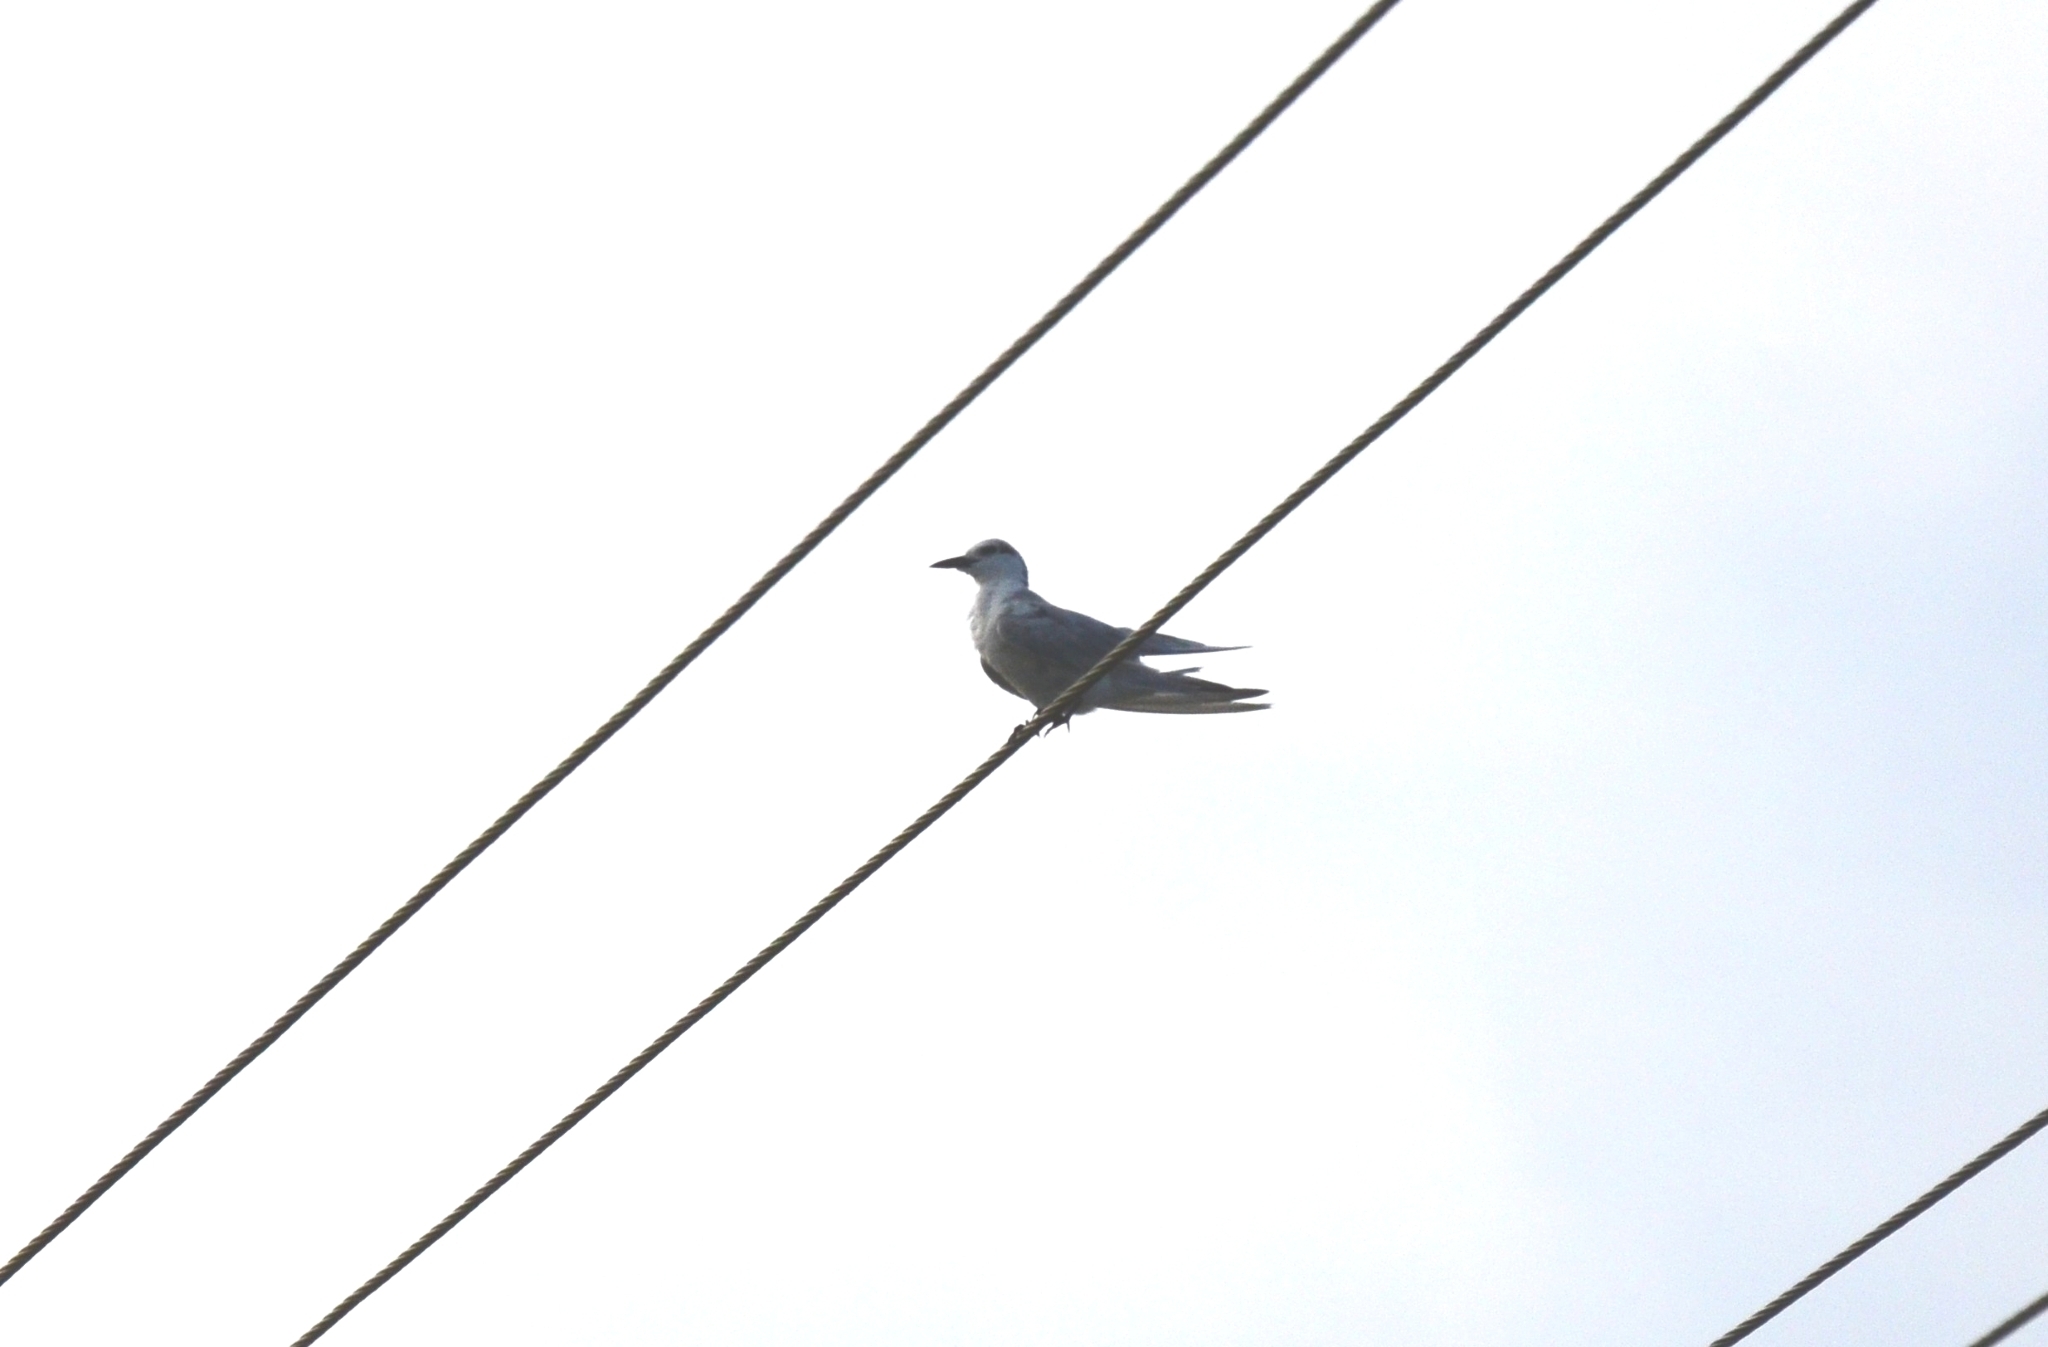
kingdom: Animalia
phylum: Chordata
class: Aves
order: Charadriiformes
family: Laridae
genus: Chlidonias
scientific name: Chlidonias hybrida
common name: Whiskered tern
